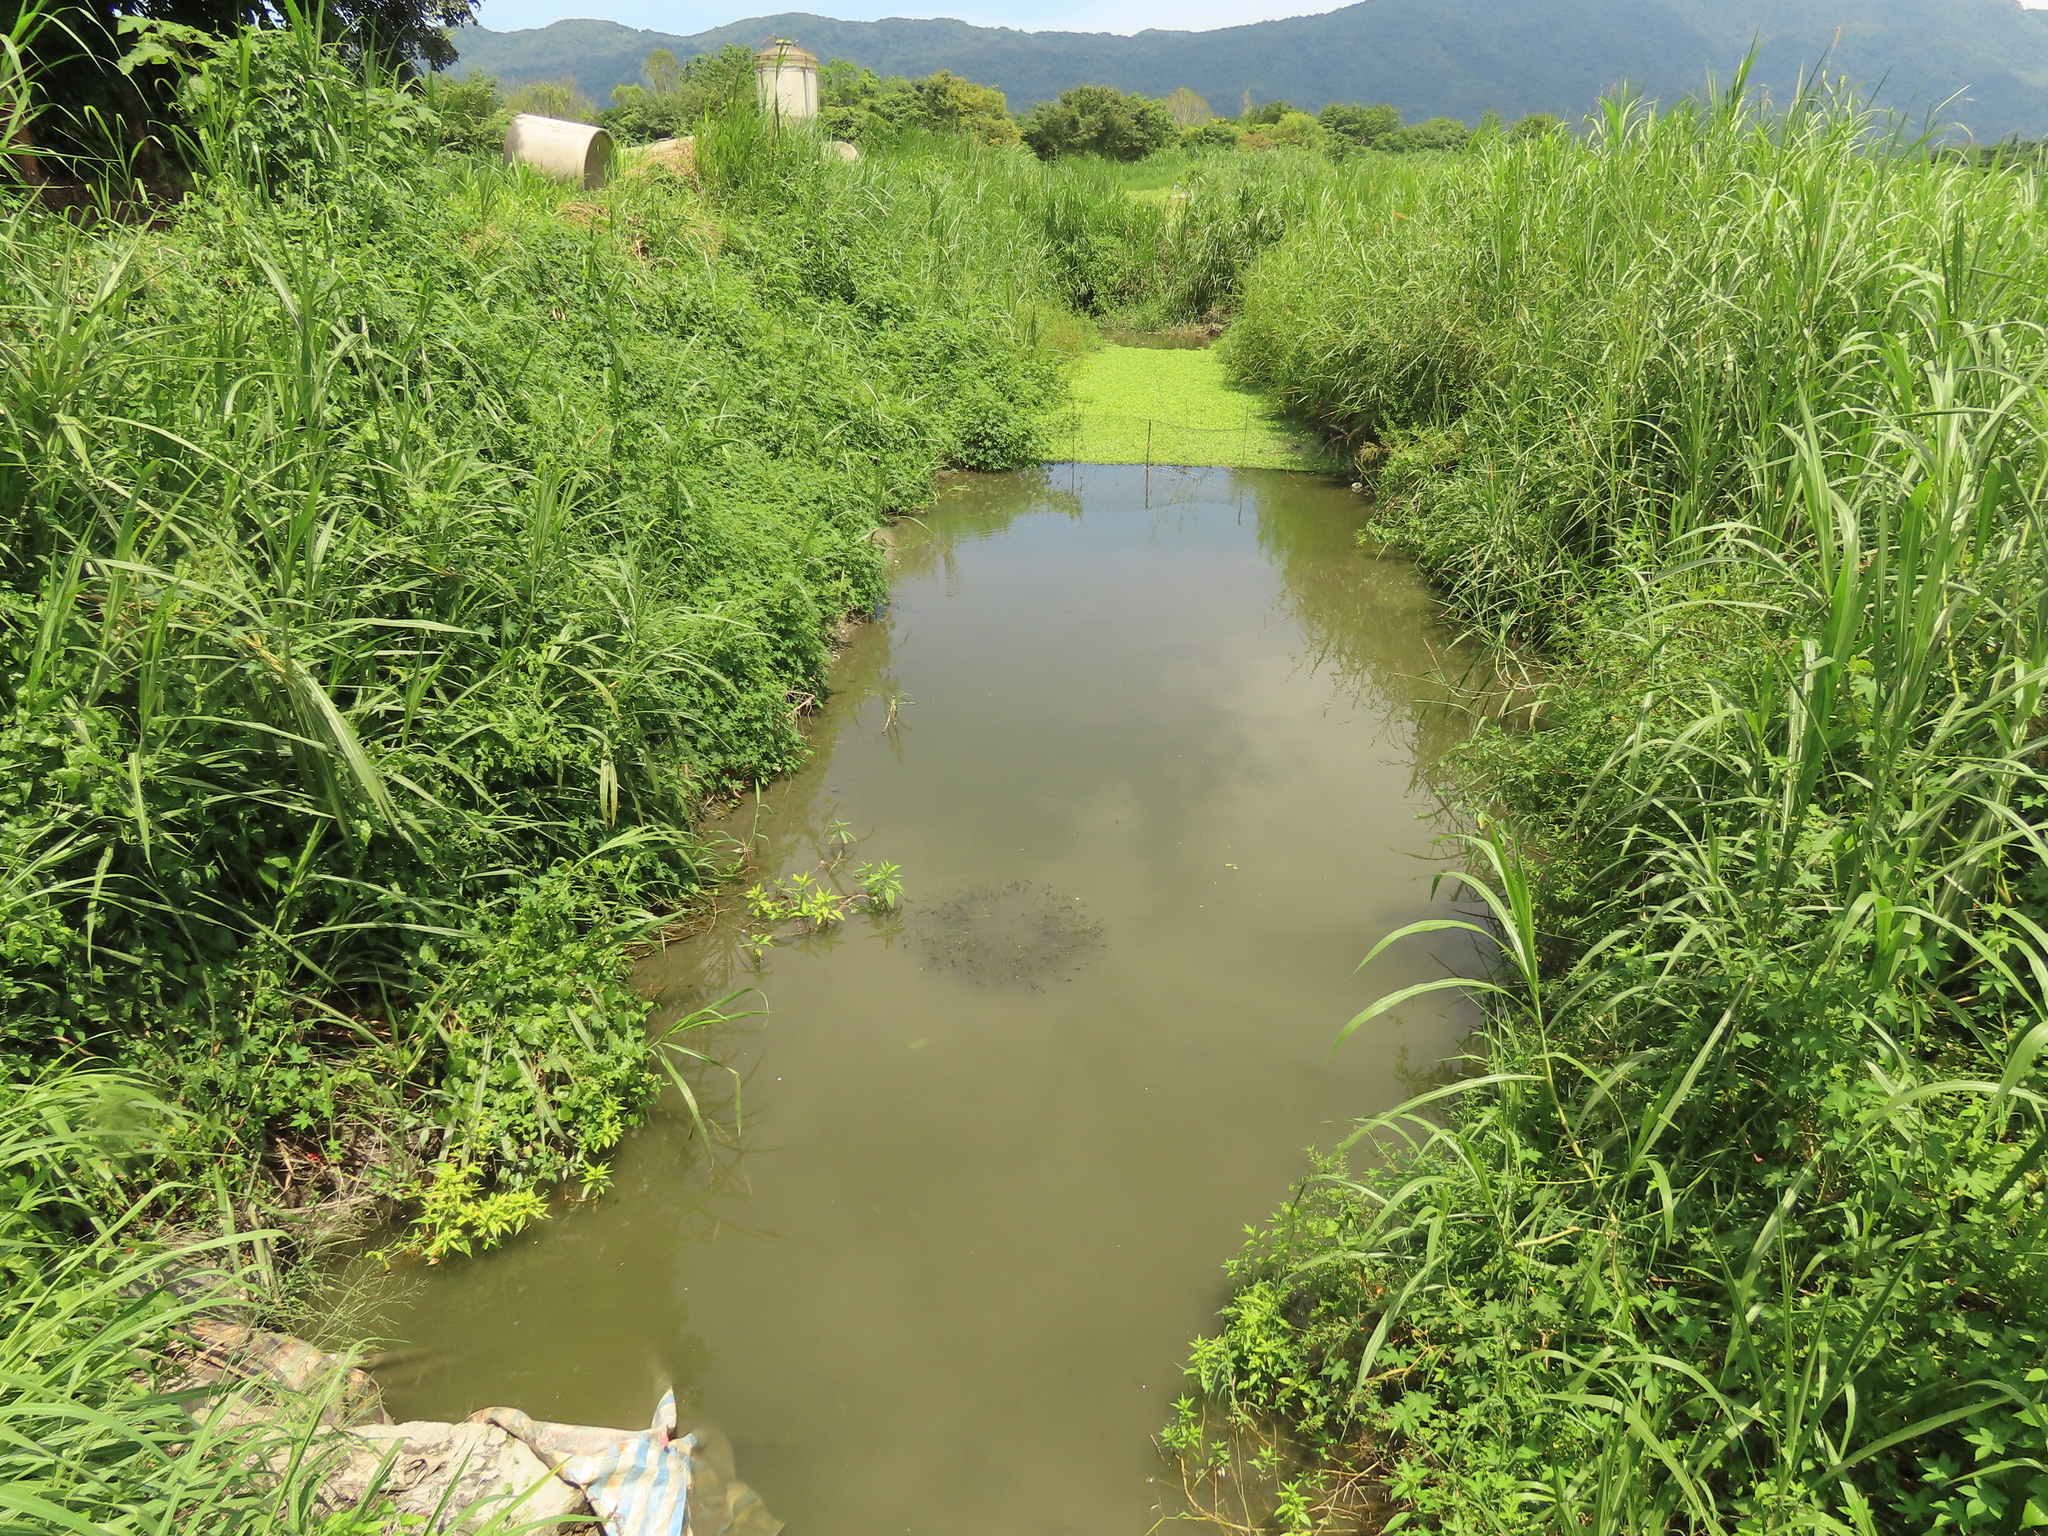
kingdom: Plantae
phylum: Tracheophyta
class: Liliopsida
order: Alismatales
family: Hydrocharitaceae
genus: Elodea
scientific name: Elodea densa
